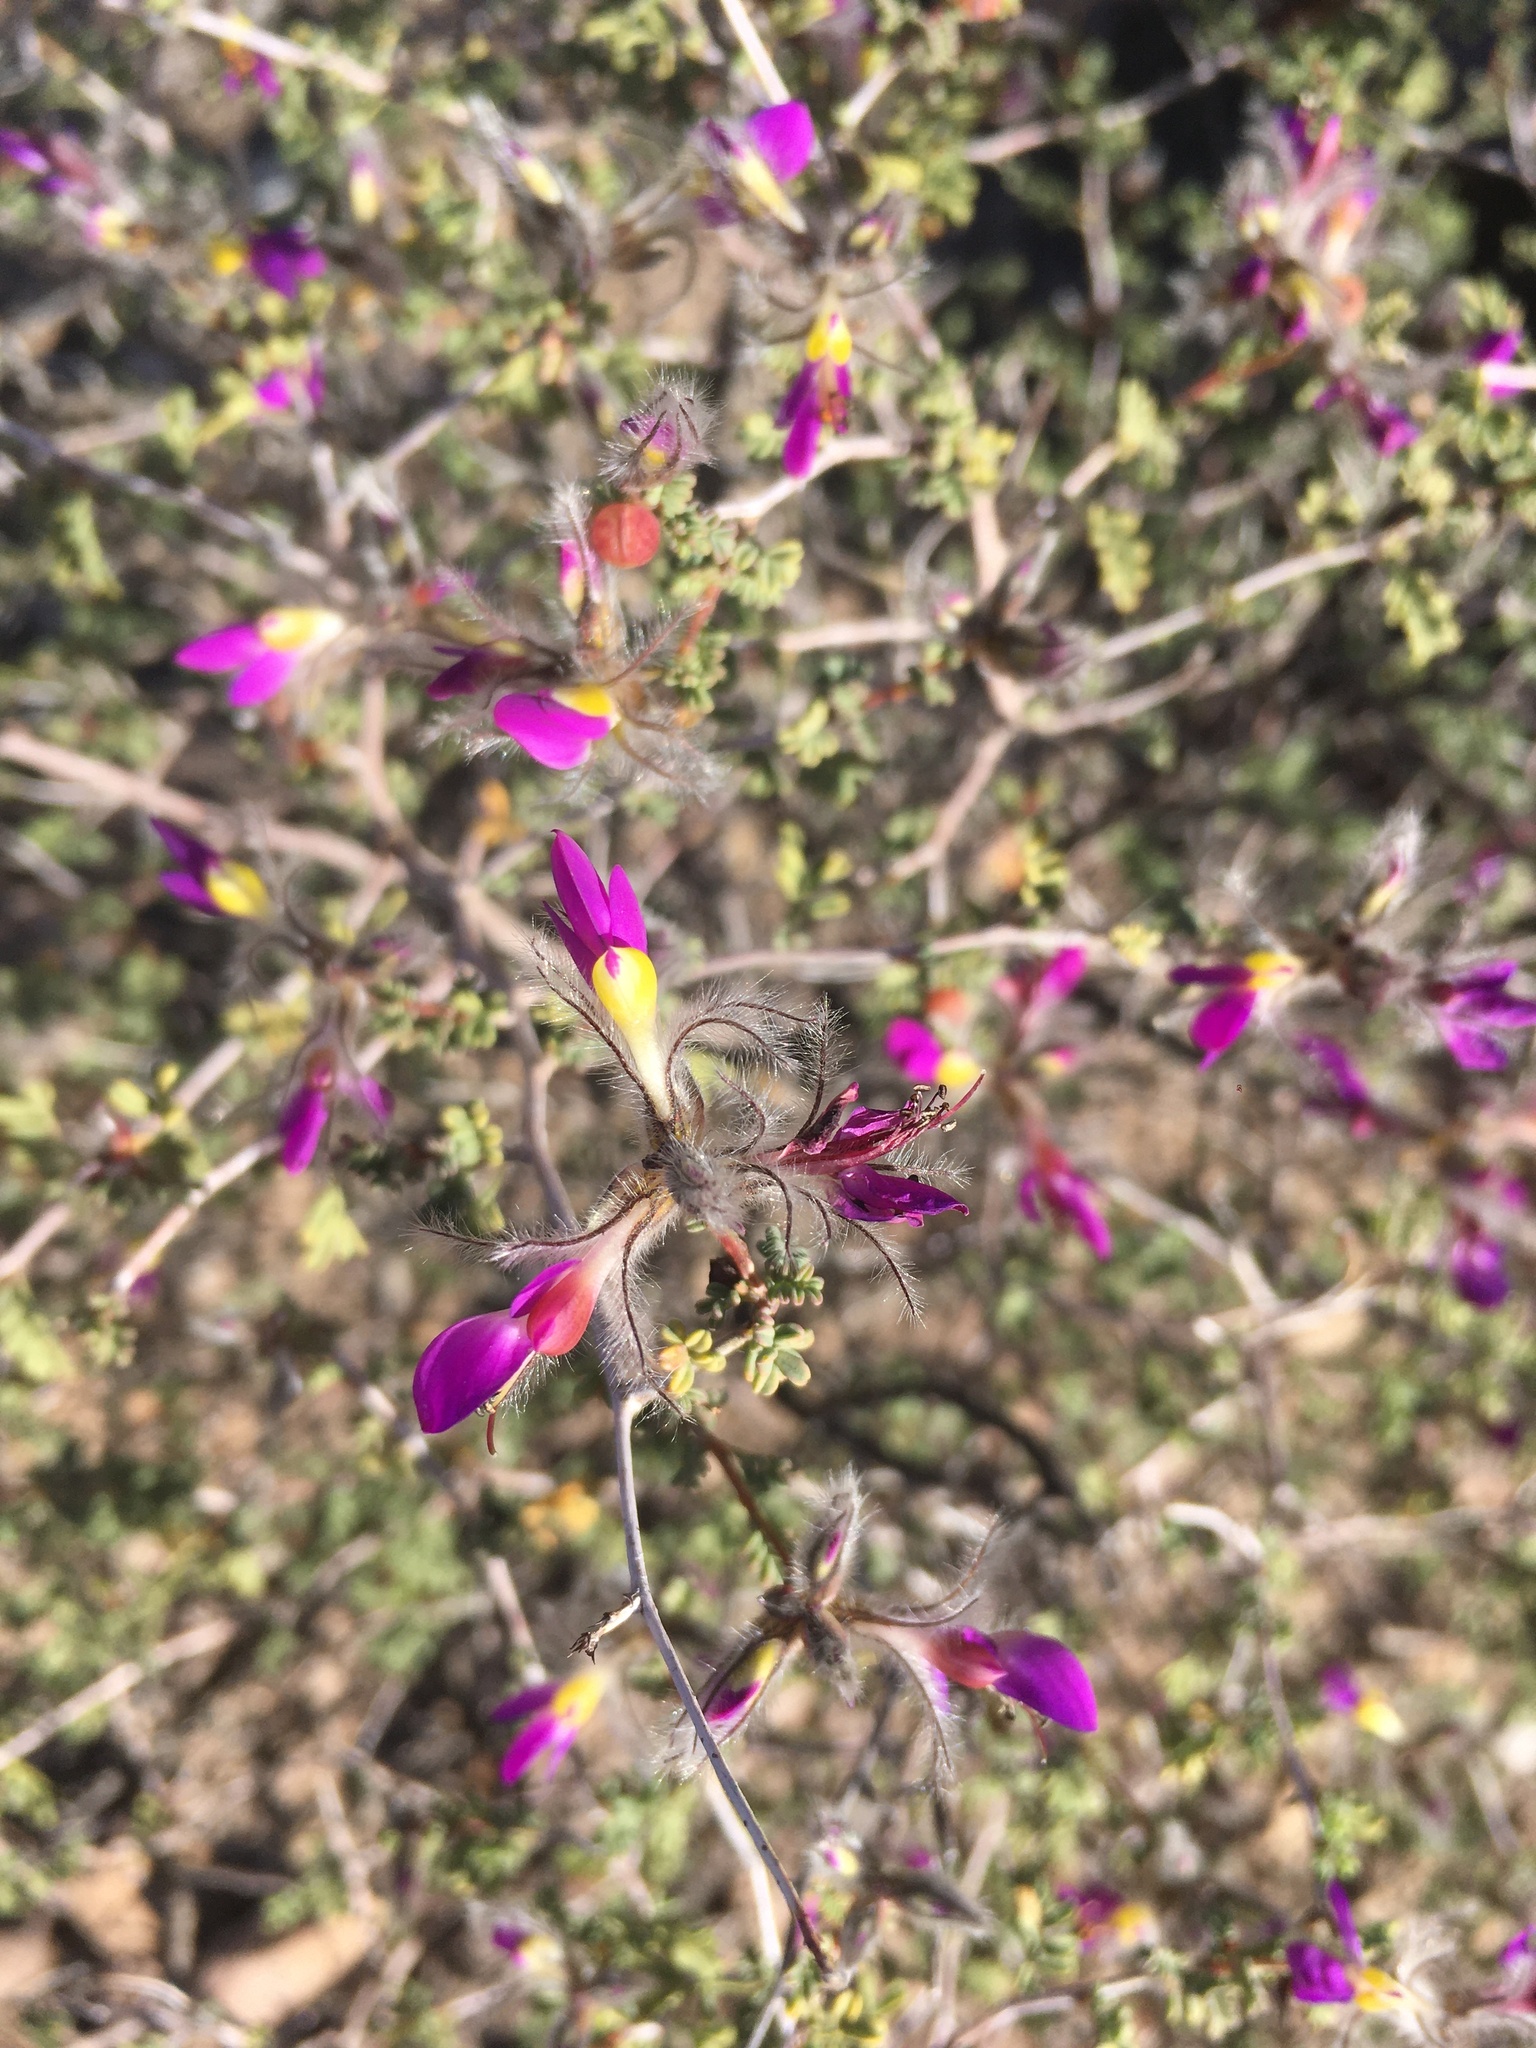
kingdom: Plantae
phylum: Tracheophyta
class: Magnoliopsida
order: Fabales
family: Fabaceae
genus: Dalea
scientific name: Dalea formosa
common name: Feather-plume dalea
